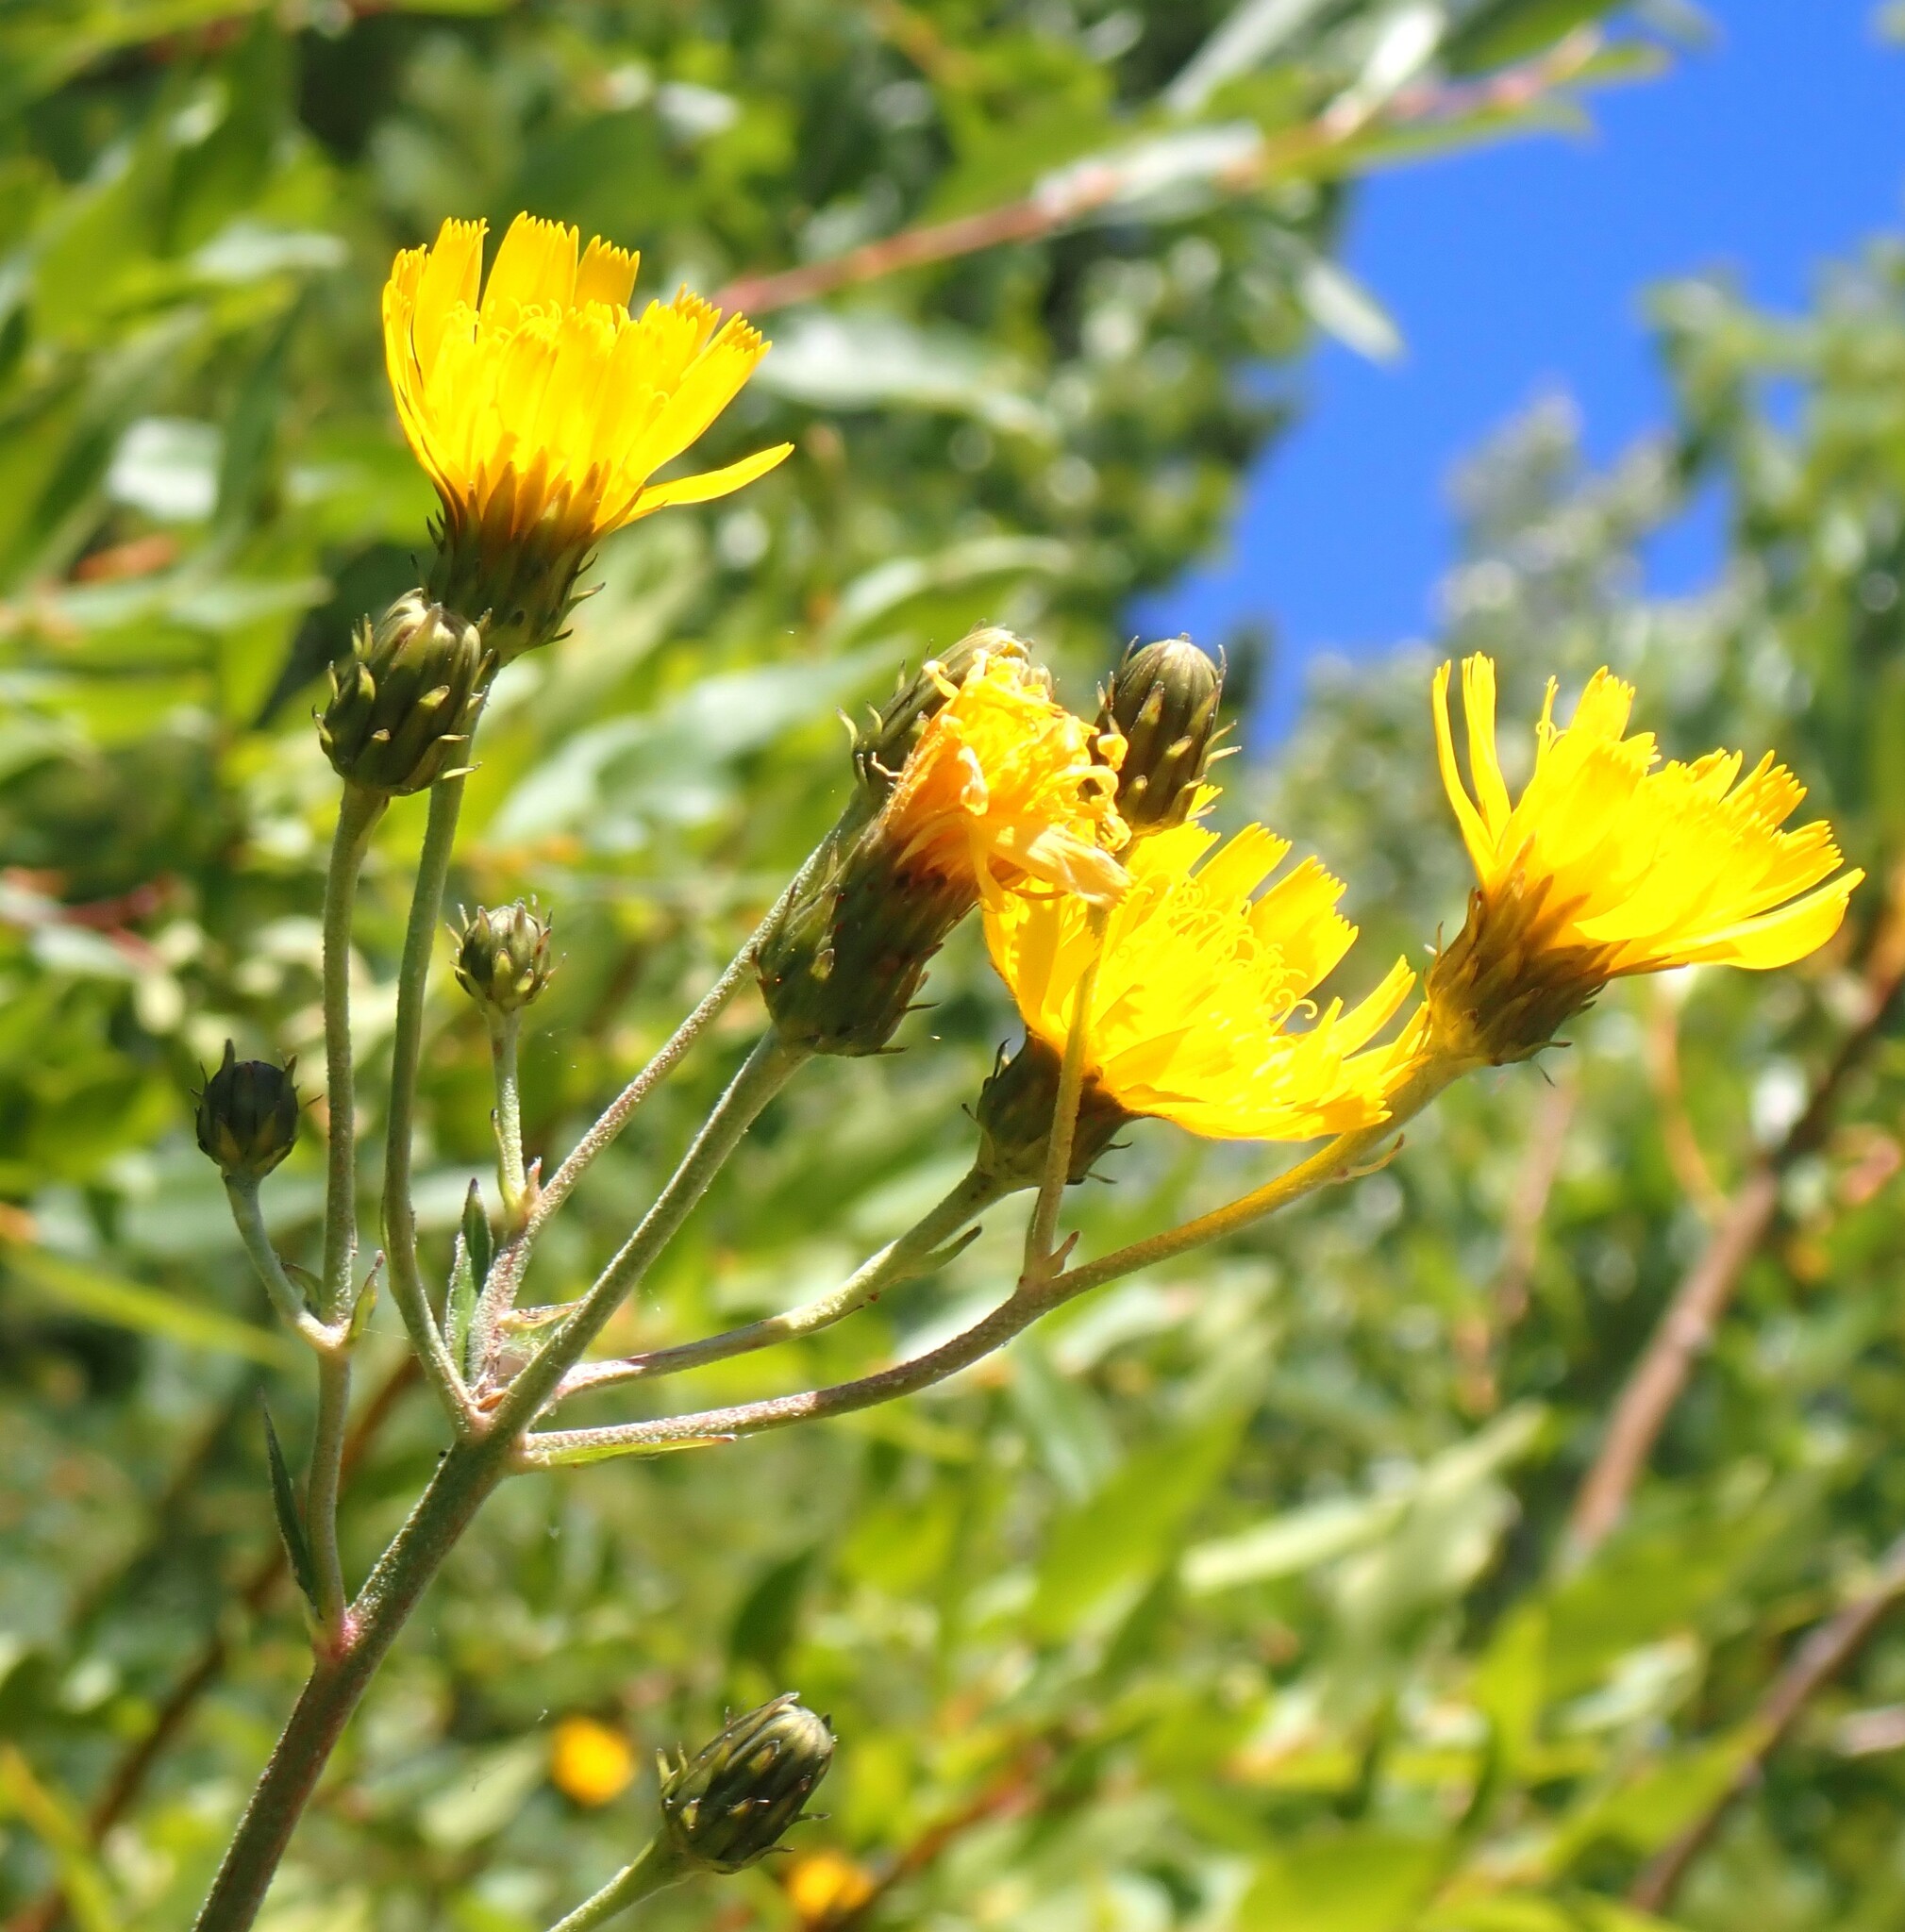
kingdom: Plantae
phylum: Tracheophyta
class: Magnoliopsida
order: Asterales
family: Asteraceae
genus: Hieracium
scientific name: Hieracium umbellatum
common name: Northern hawkweed
